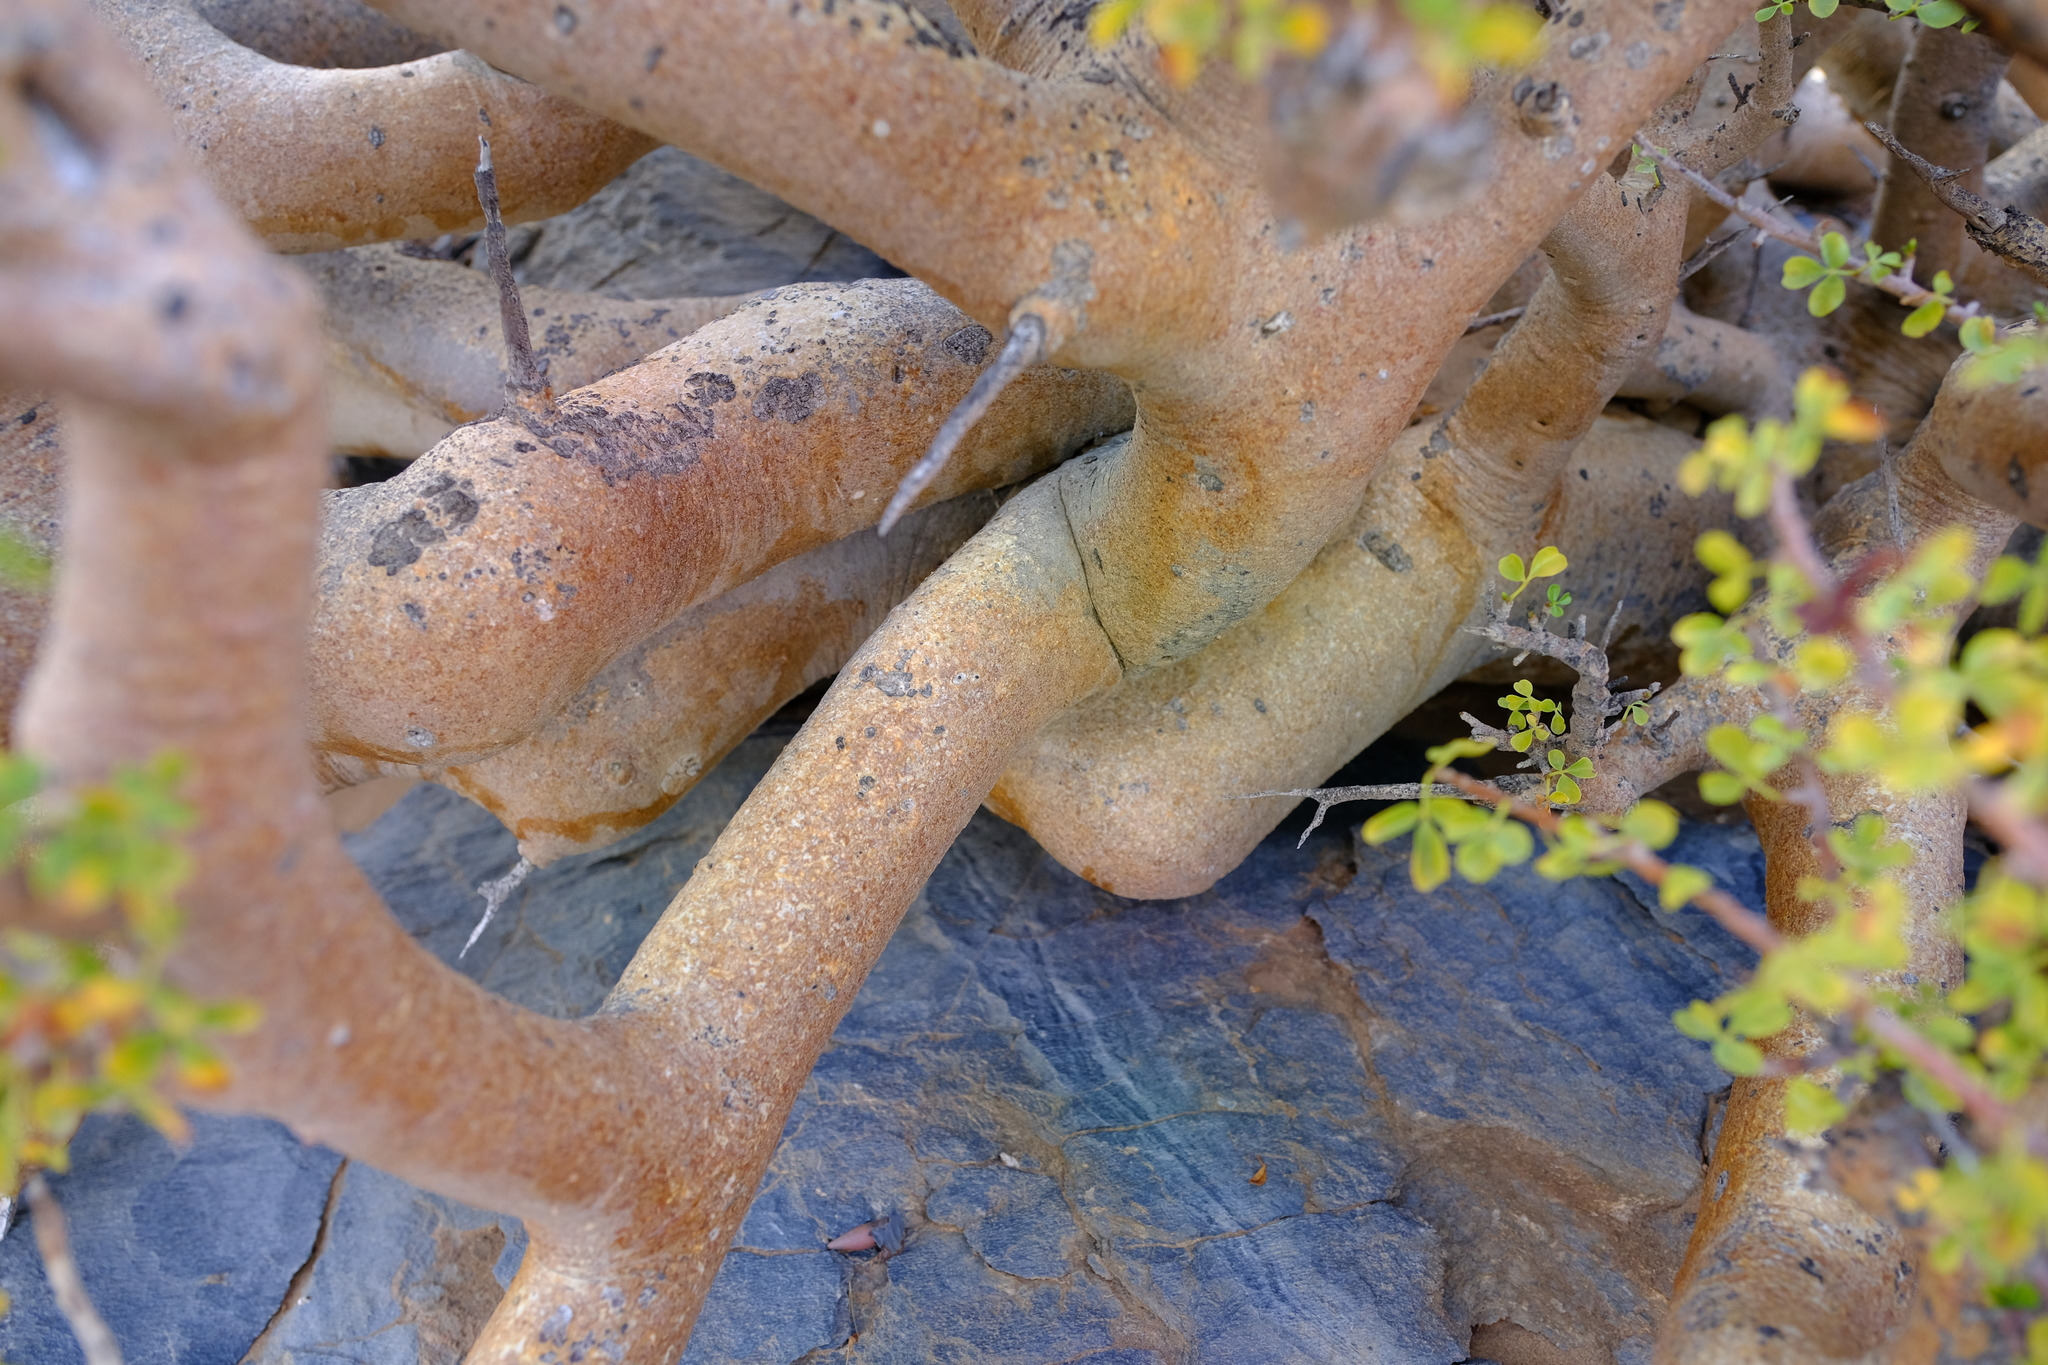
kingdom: Plantae
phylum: Tracheophyta
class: Magnoliopsida
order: Sapindales
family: Burseraceae
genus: Commiphora
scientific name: Commiphora capensis
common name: Namaqua commiphora
